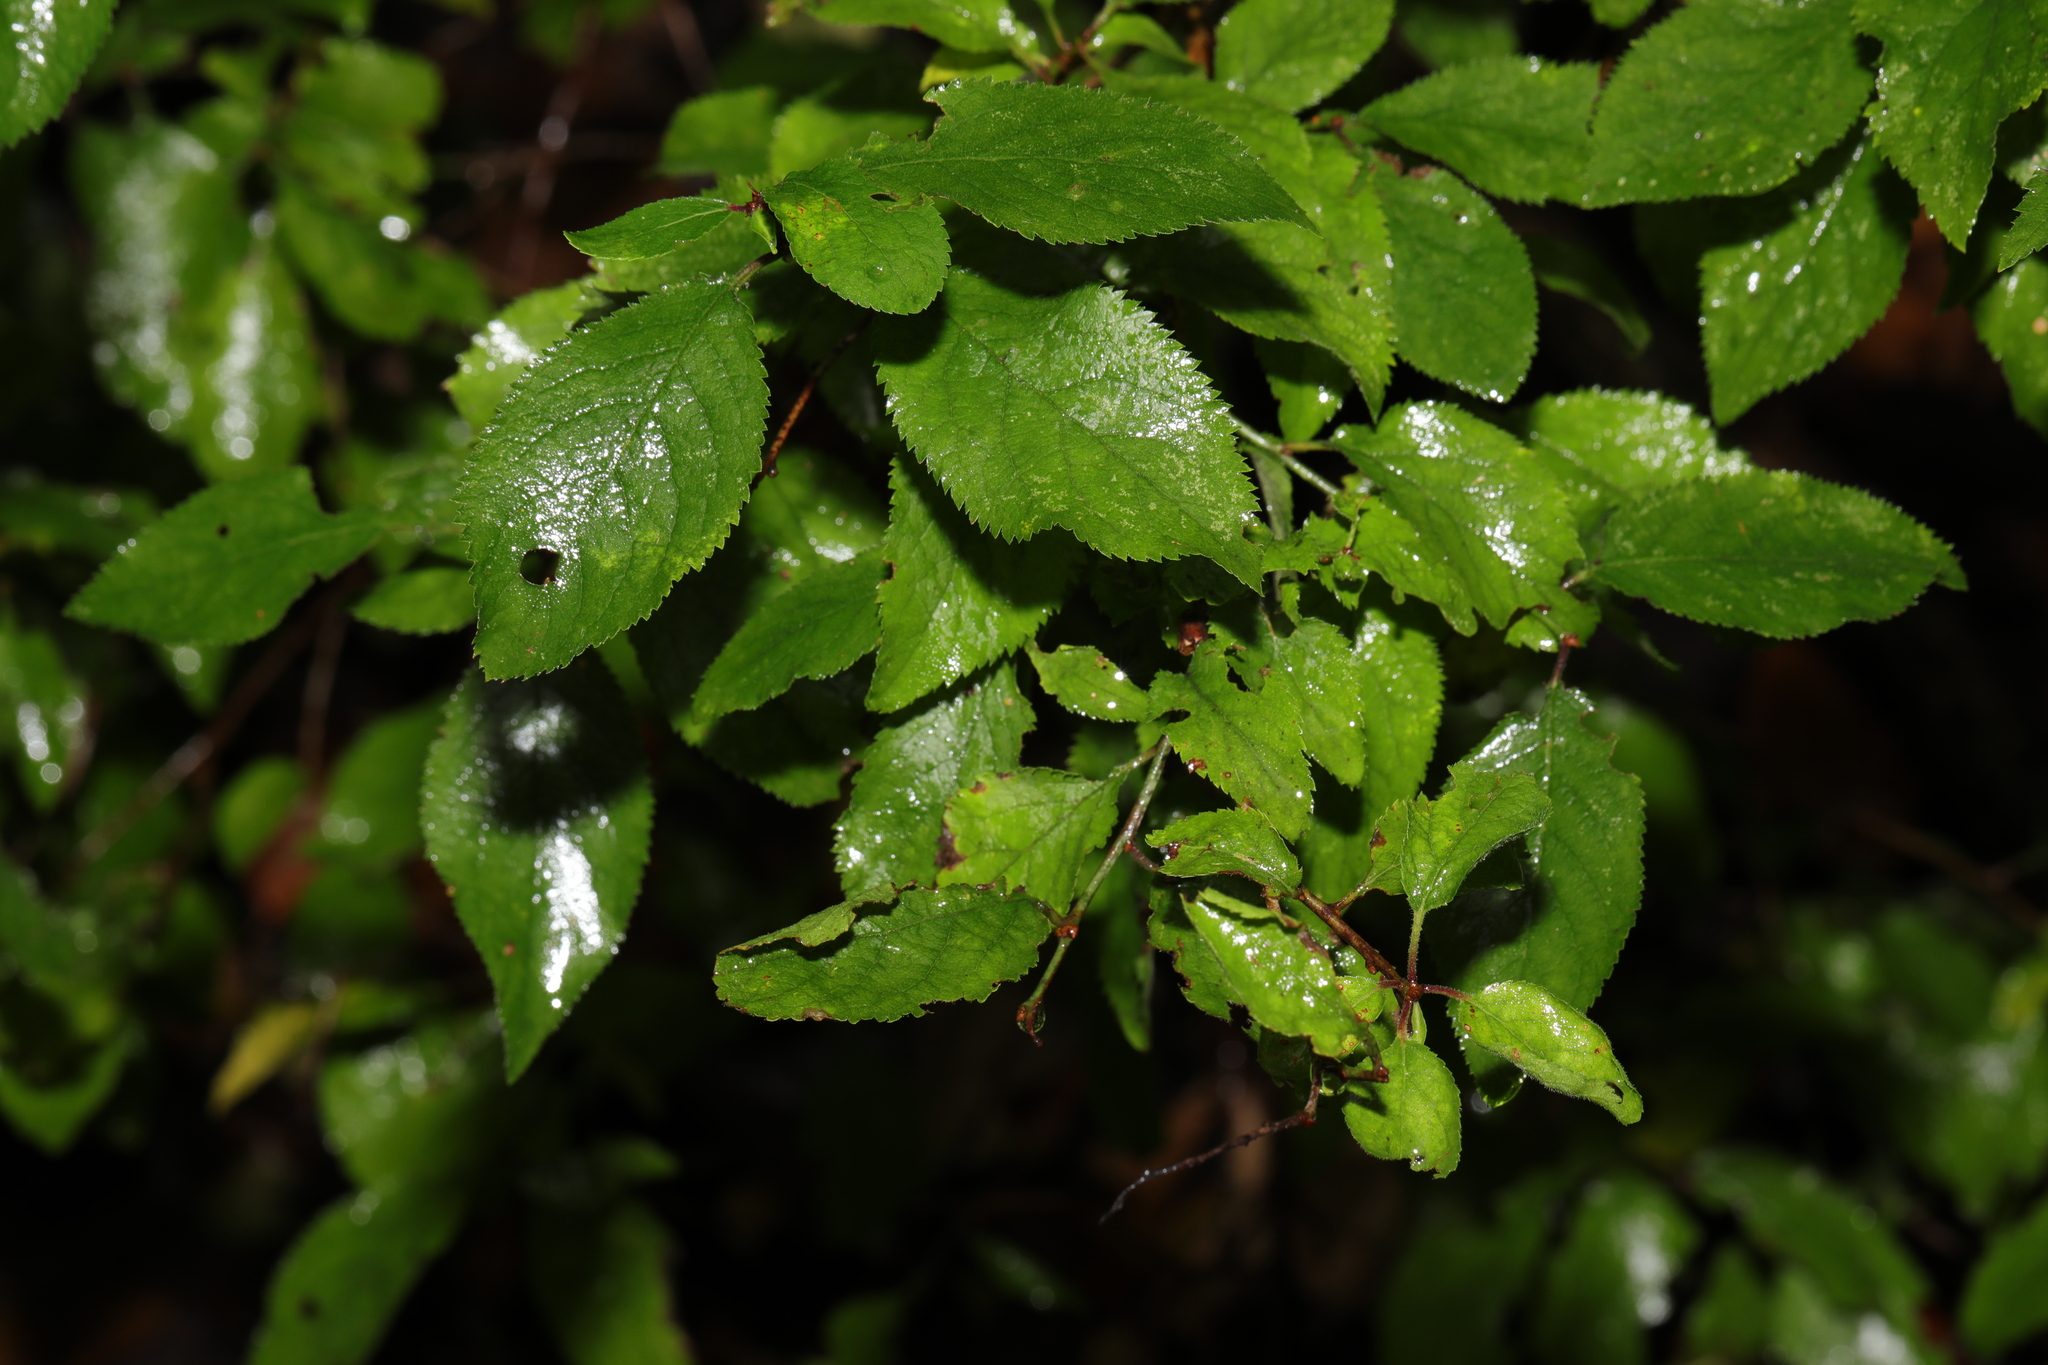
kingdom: Plantae
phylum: Tracheophyta
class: Magnoliopsida
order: Rosales
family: Rosaceae
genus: Prunus
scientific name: Prunus spinosa
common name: Blackthorn
